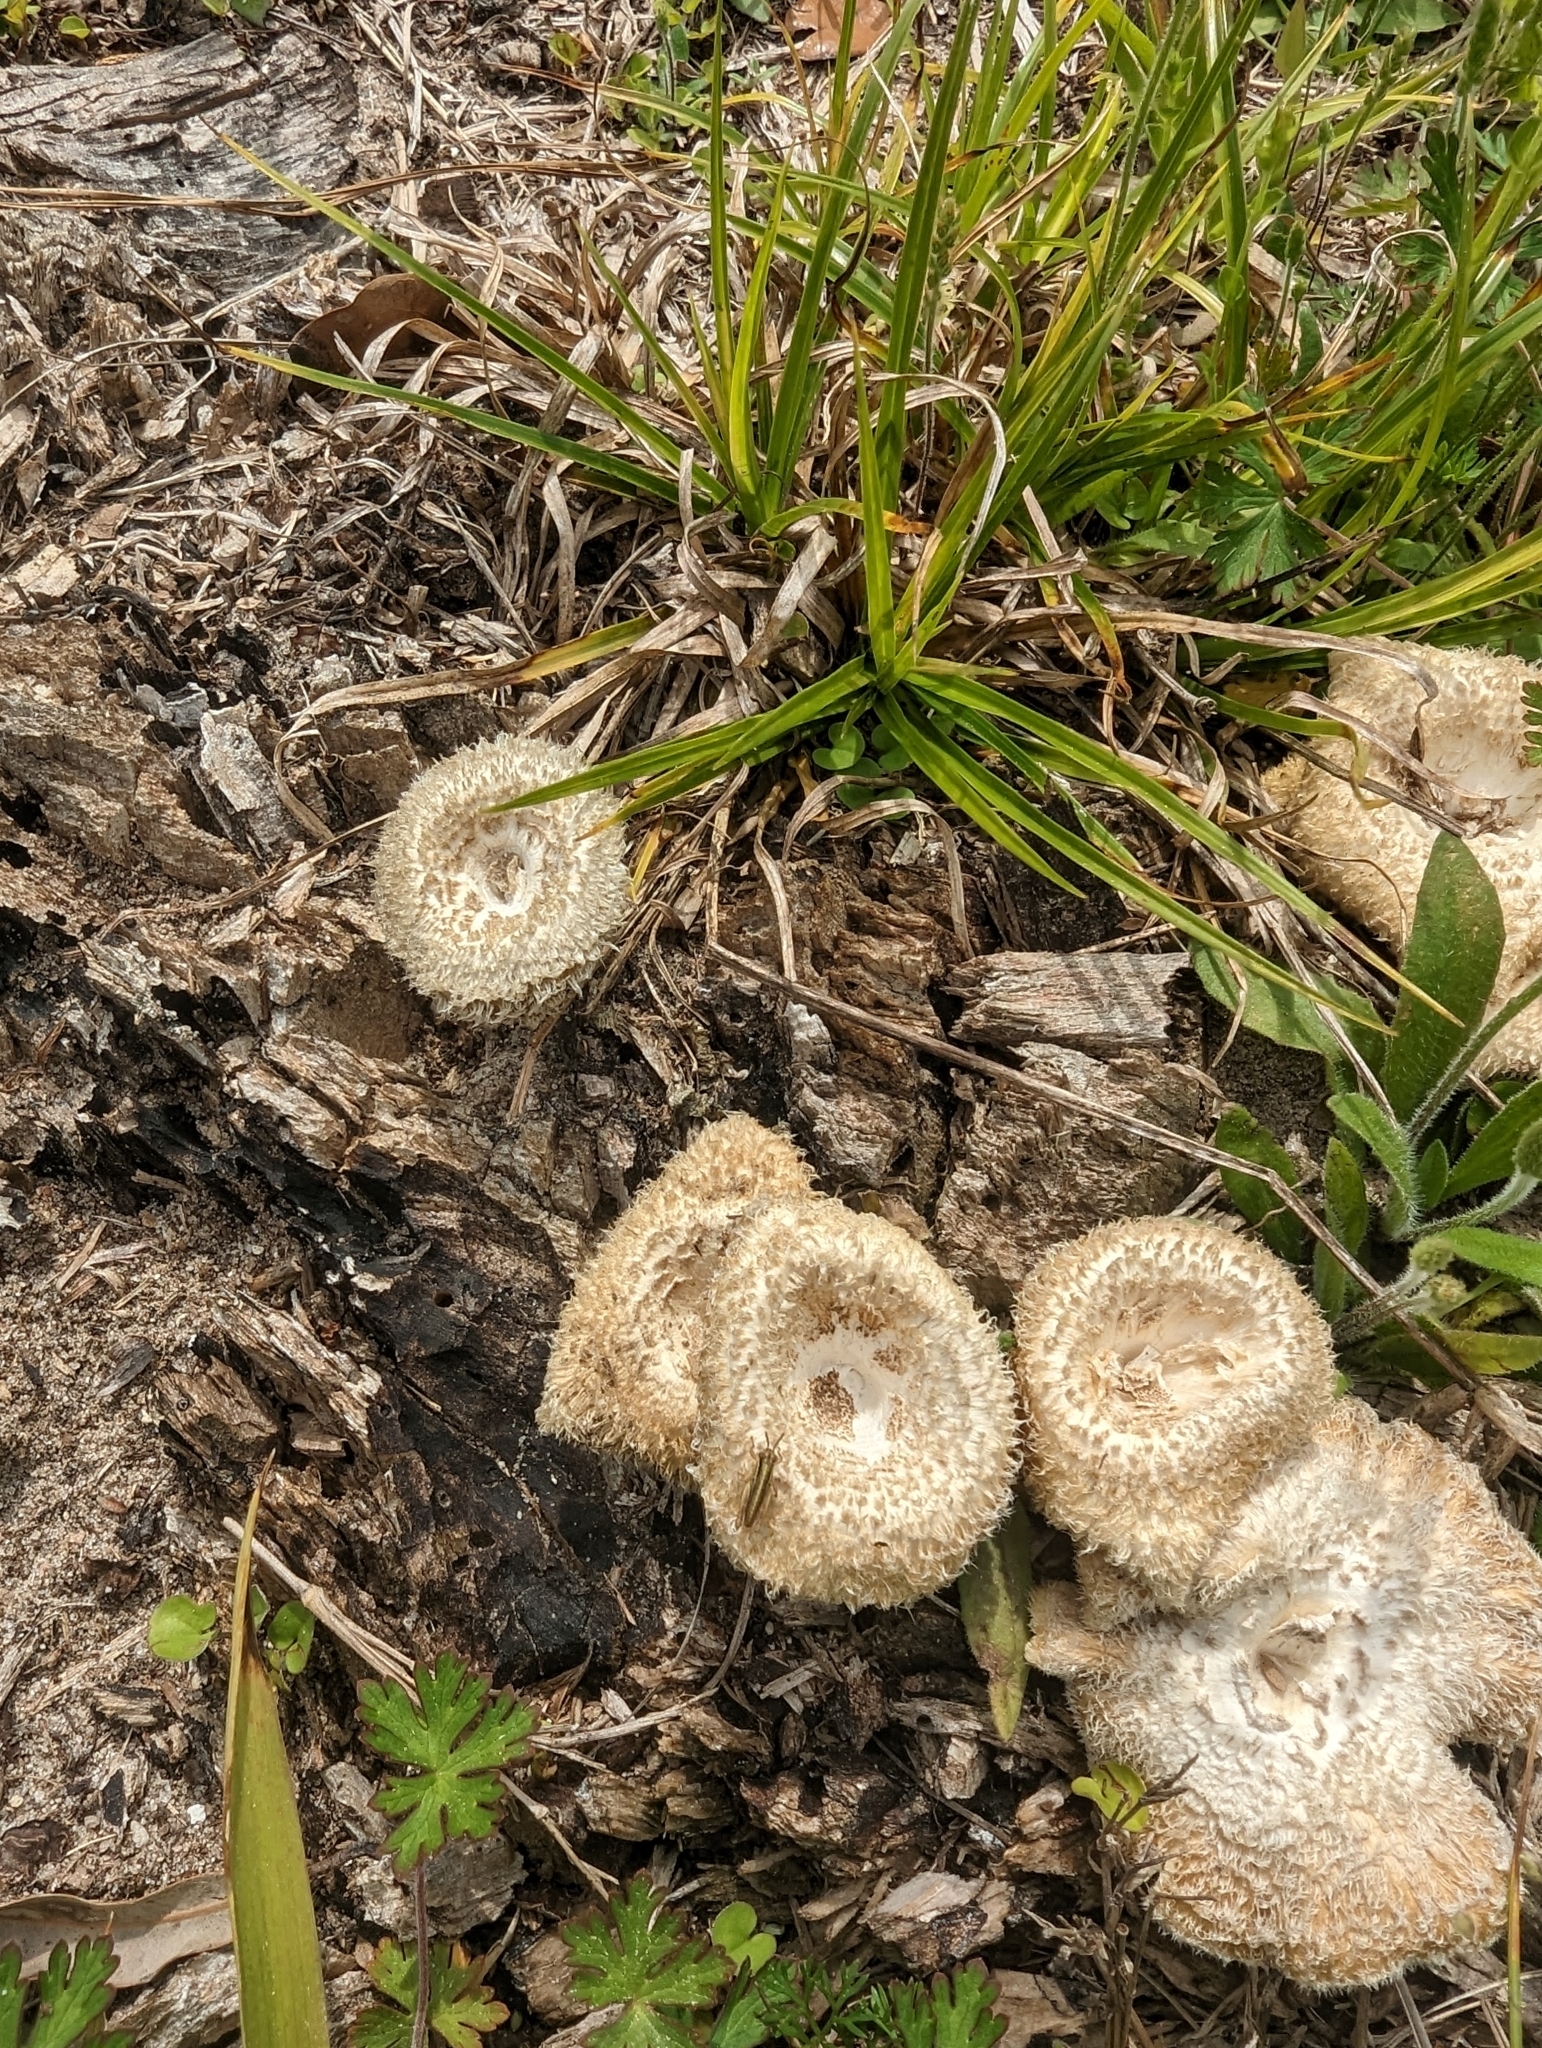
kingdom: Fungi
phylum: Basidiomycota
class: Agaricomycetes
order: Polyporales
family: Polyporaceae
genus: Lentinus
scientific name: Lentinus crinitus
